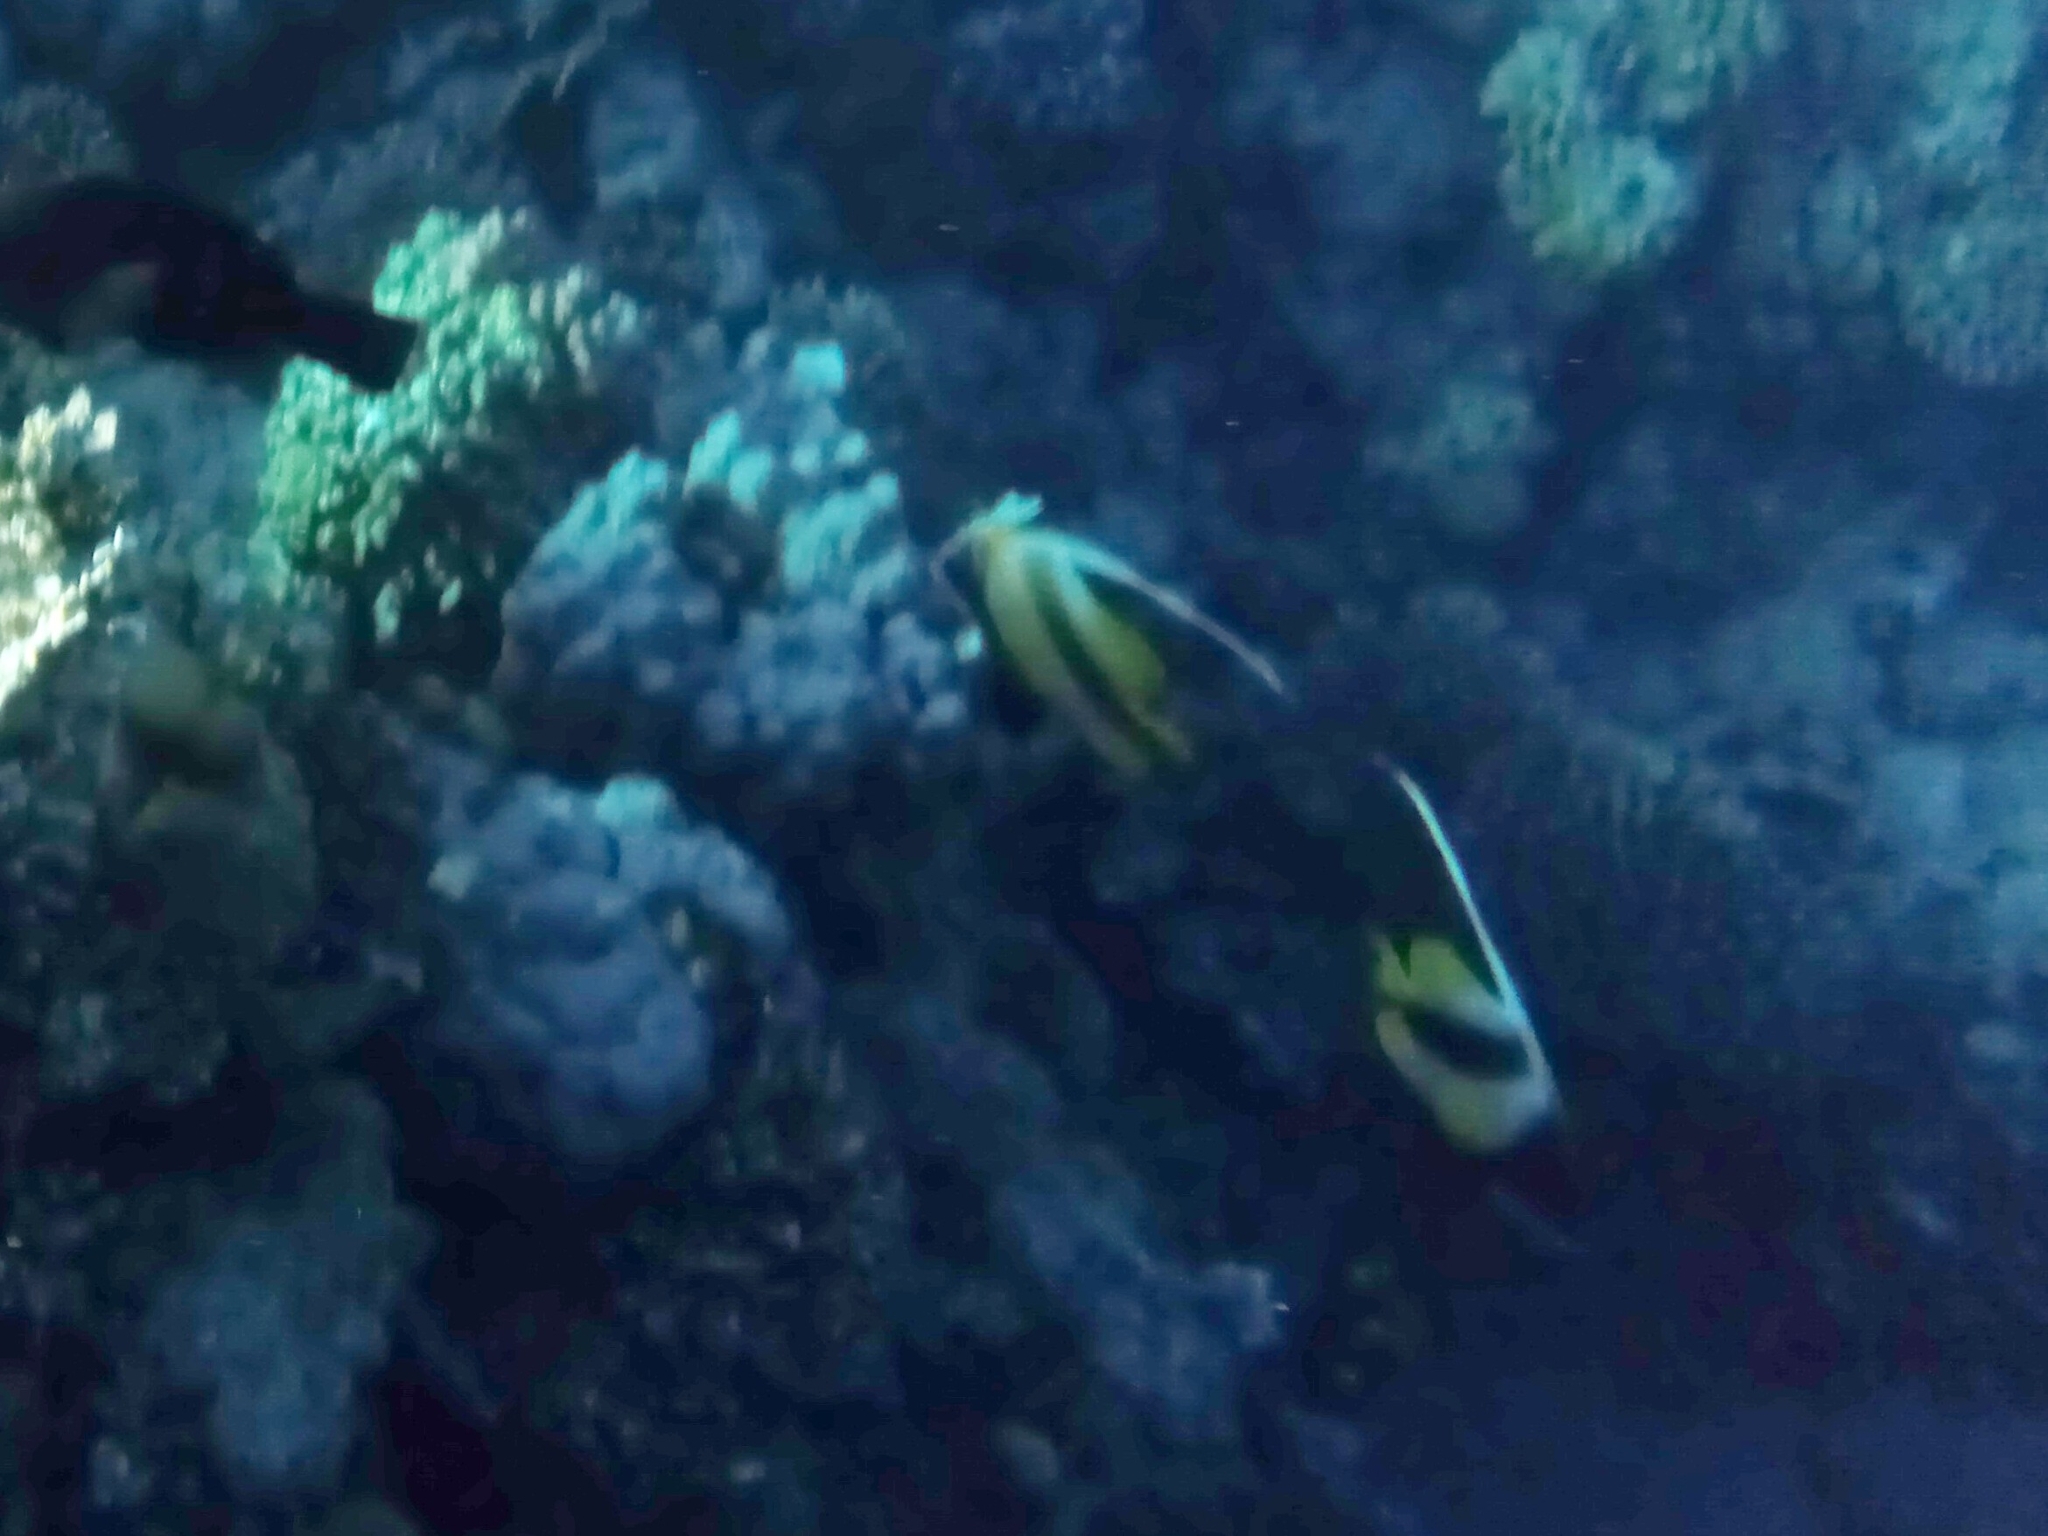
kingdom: Animalia
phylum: Chordata
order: Perciformes
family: Chaetodontidae
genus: Heniochus
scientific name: Heniochus intermedius
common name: Red sea bannerfish
